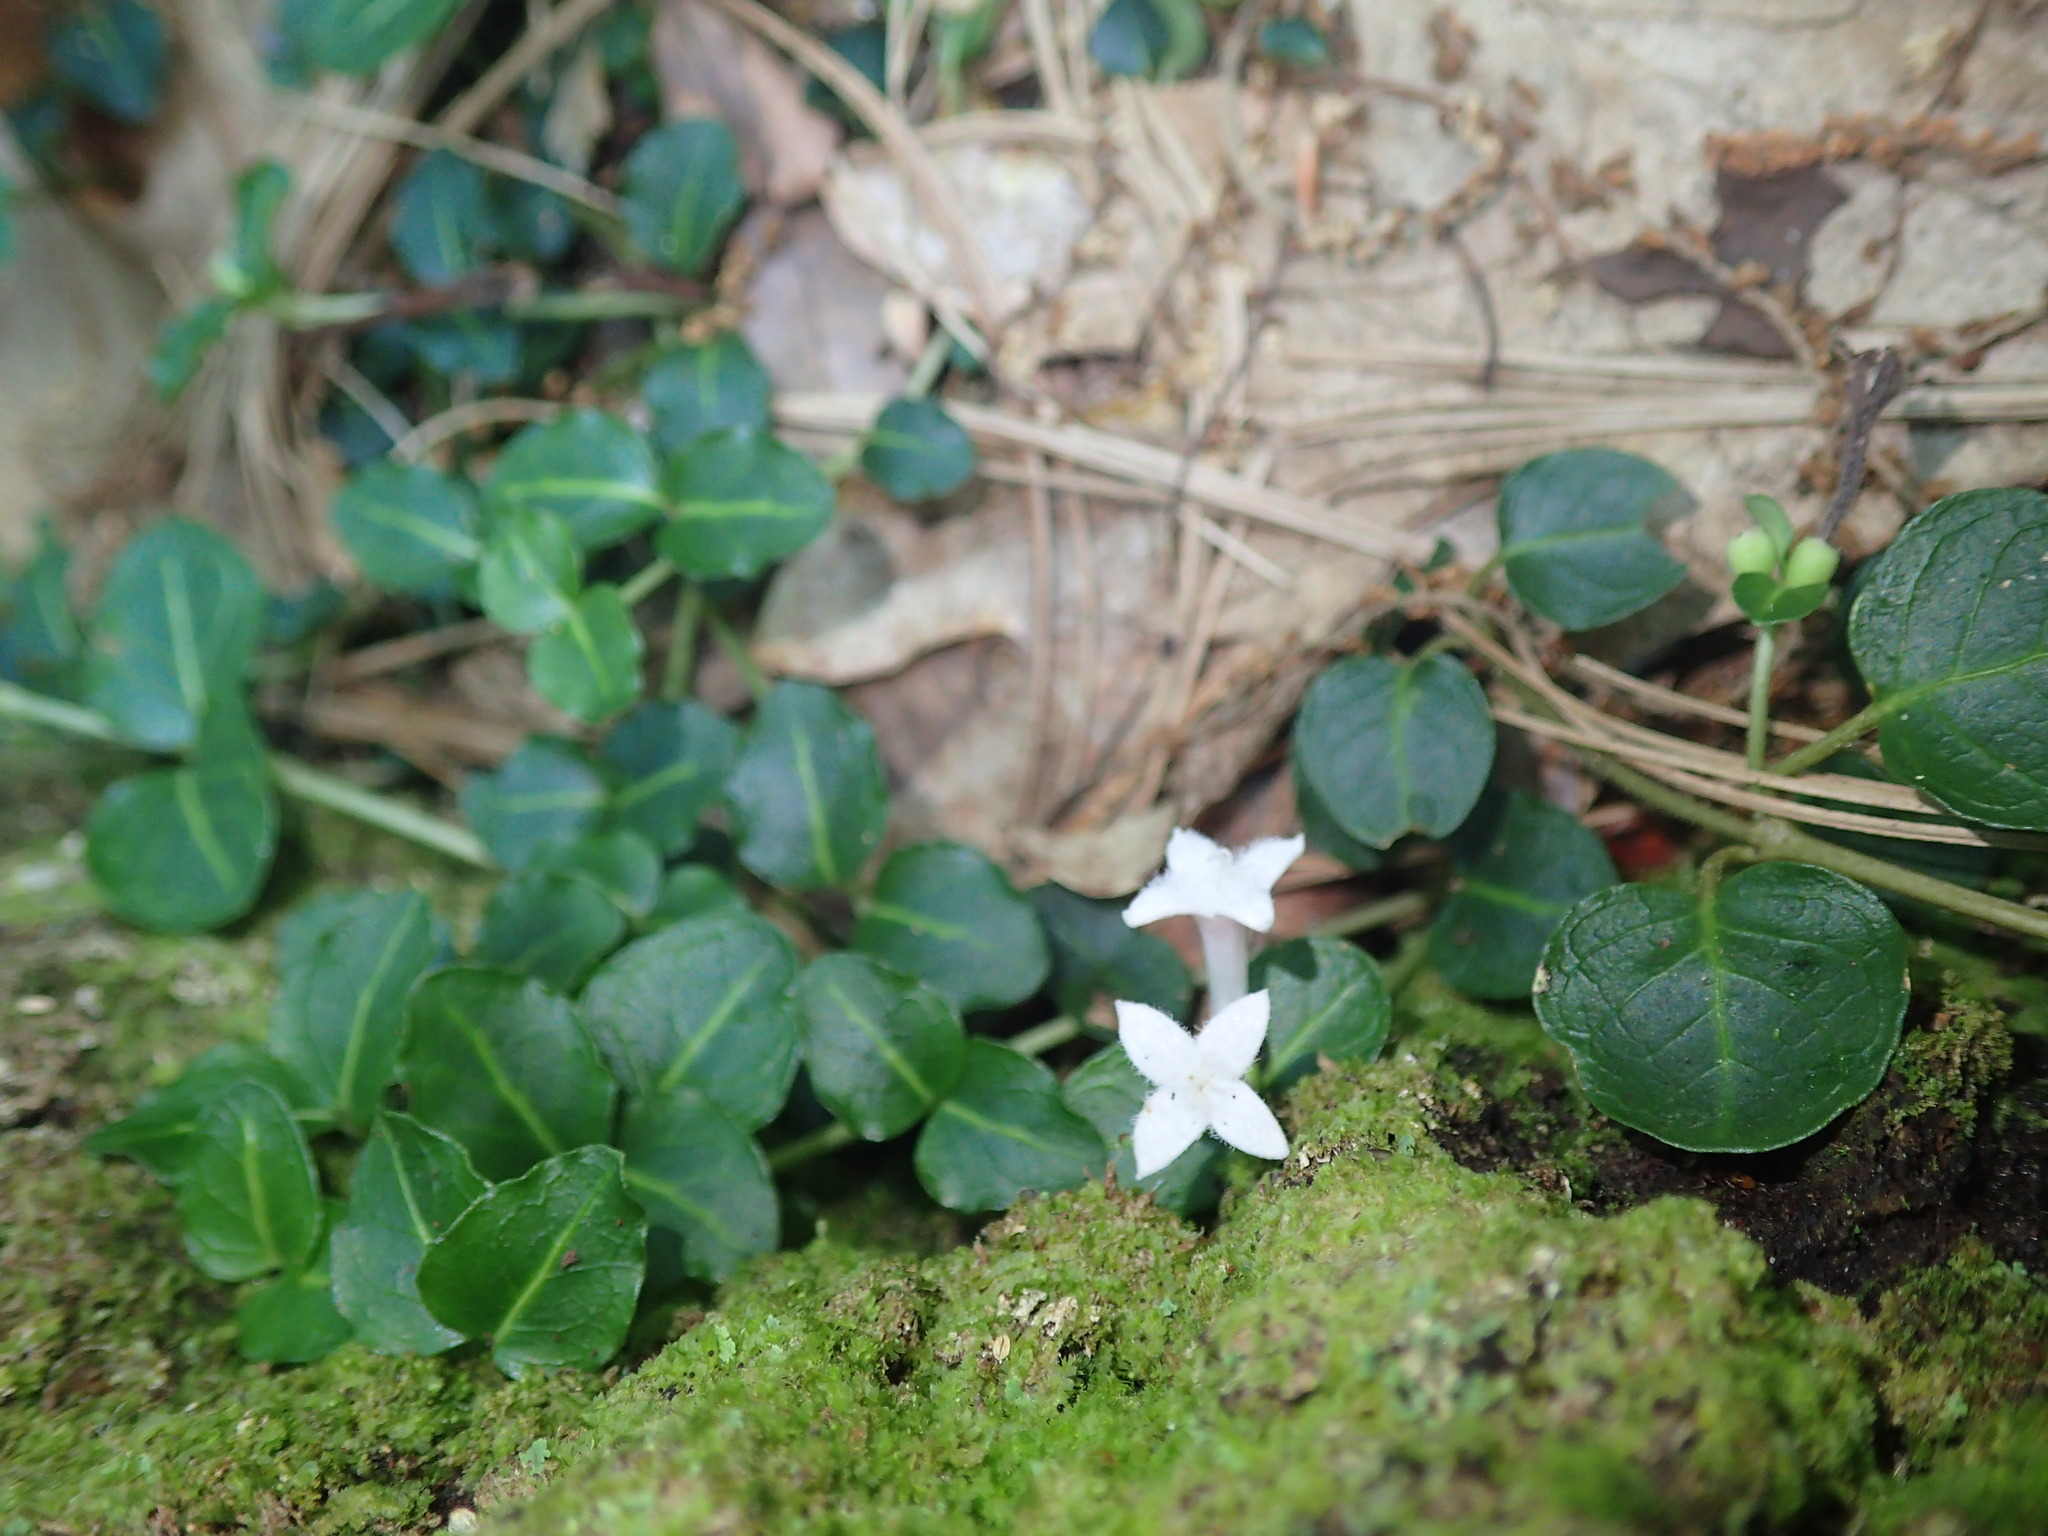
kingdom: Plantae
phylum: Tracheophyta
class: Magnoliopsida
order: Gentianales
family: Rubiaceae
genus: Mitchella
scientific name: Mitchella repens
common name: Partridge-berry
